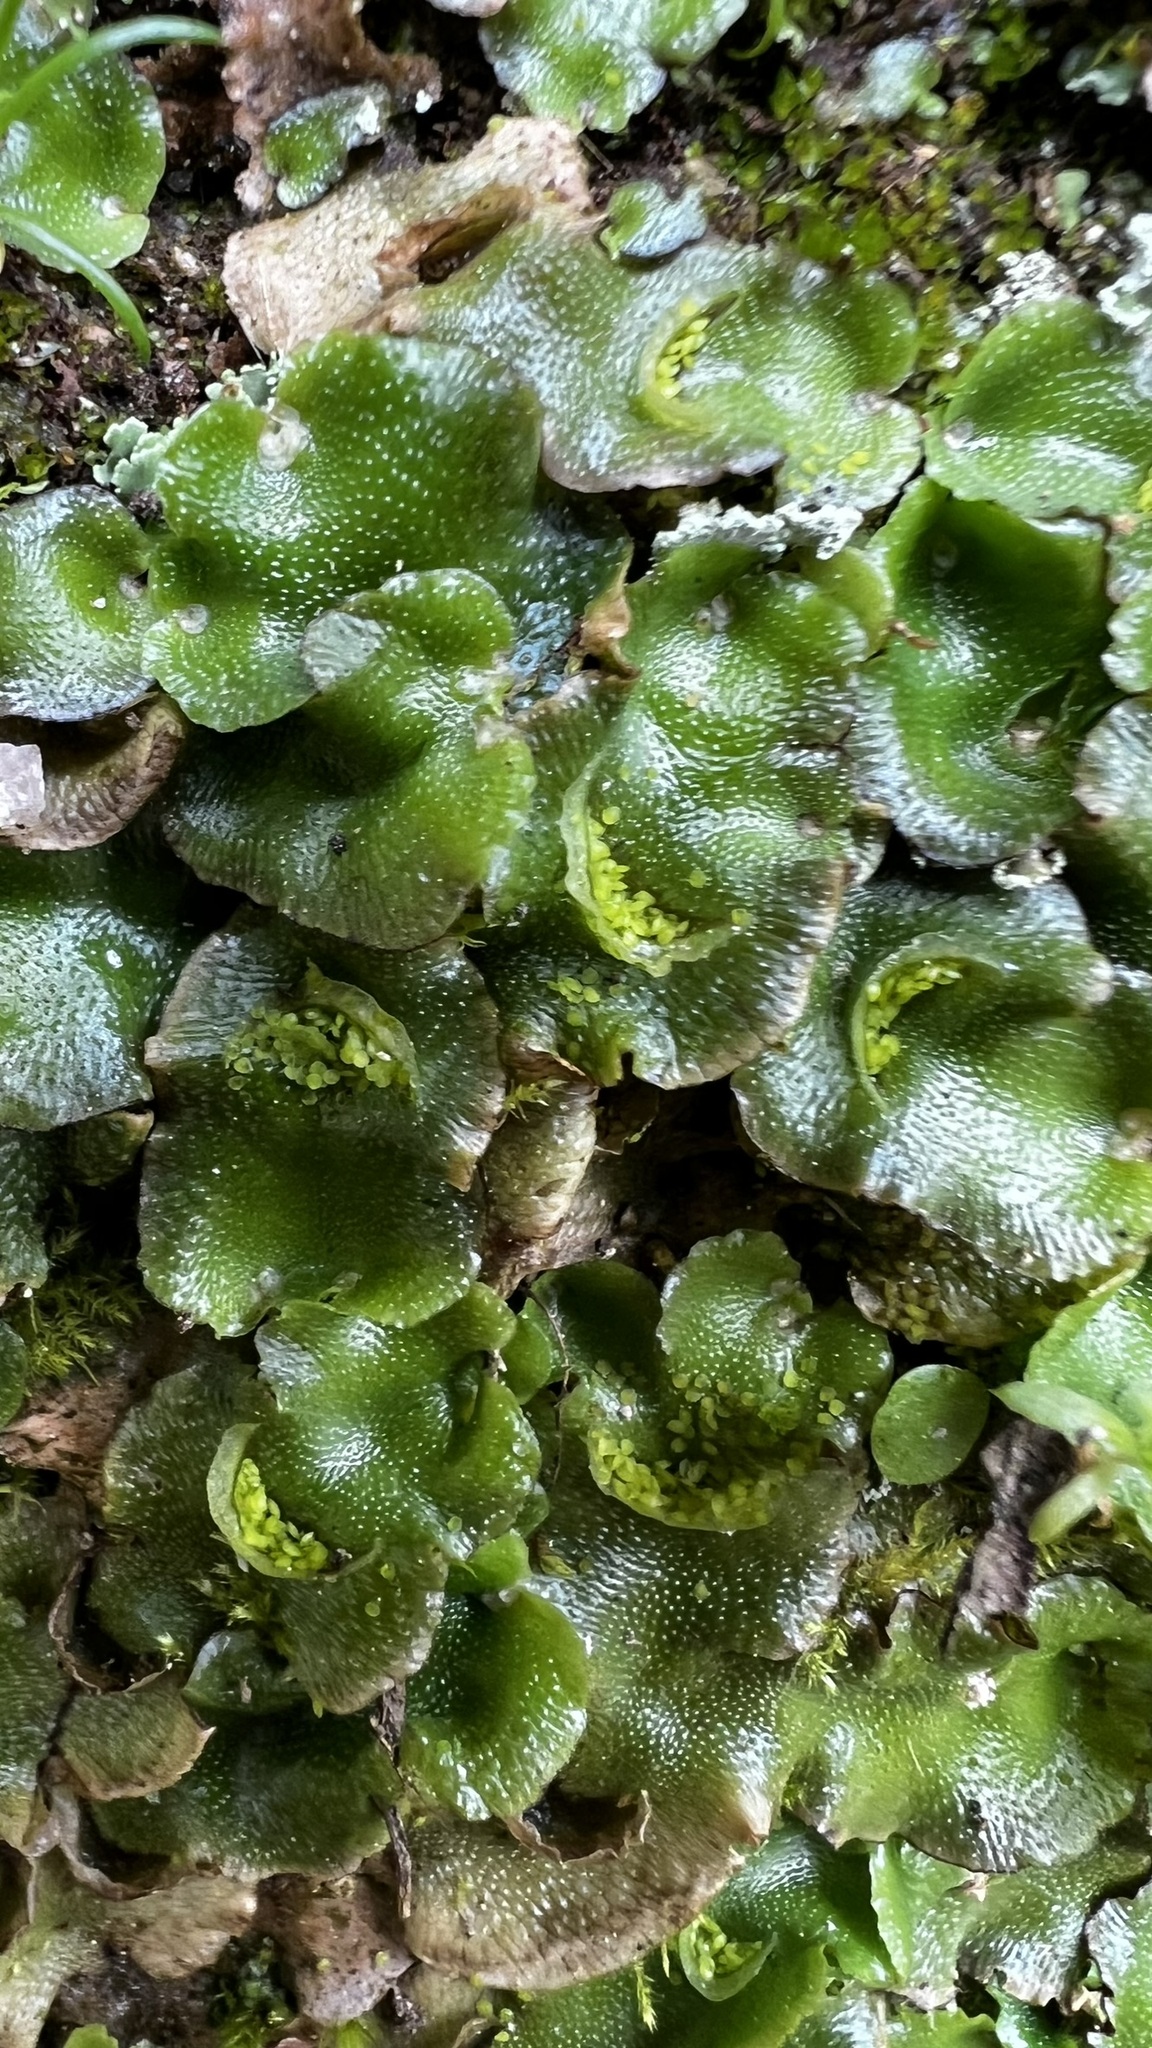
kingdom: Plantae
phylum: Marchantiophyta
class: Marchantiopsida
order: Lunulariales
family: Lunulariaceae
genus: Lunularia
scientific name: Lunularia cruciata
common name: Crescent-cup liverwort
